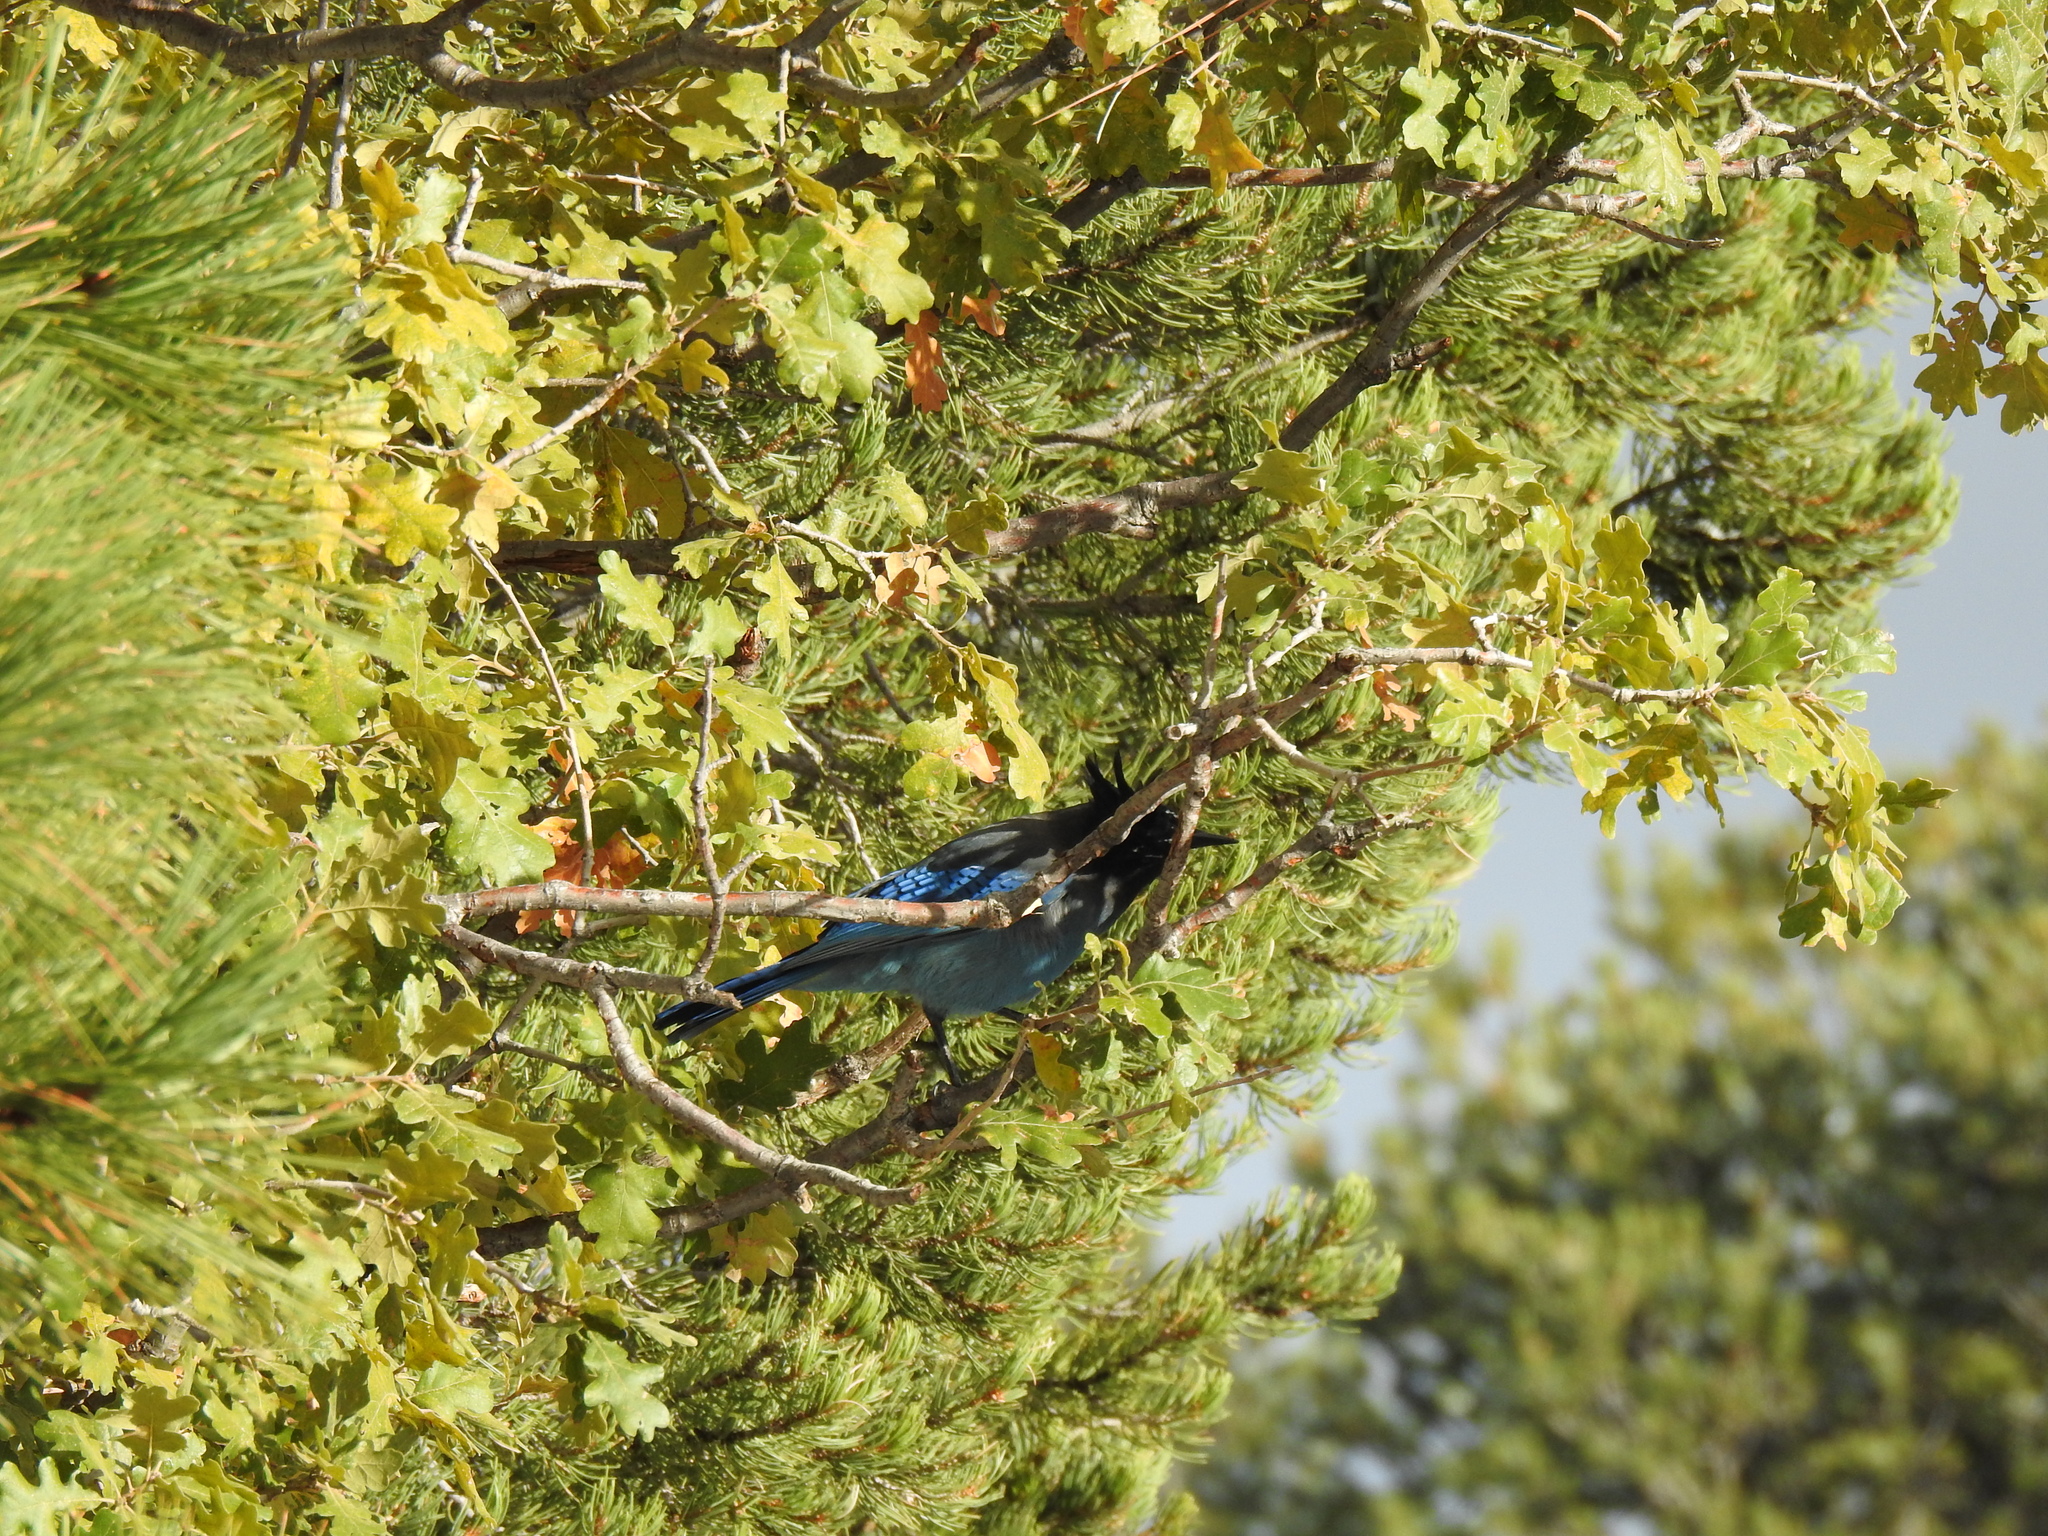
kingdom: Animalia
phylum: Chordata
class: Aves
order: Passeriformes
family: Corvidae
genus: Cyanocitta
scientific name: Cyanocitta stelleri
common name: Steller's jay
